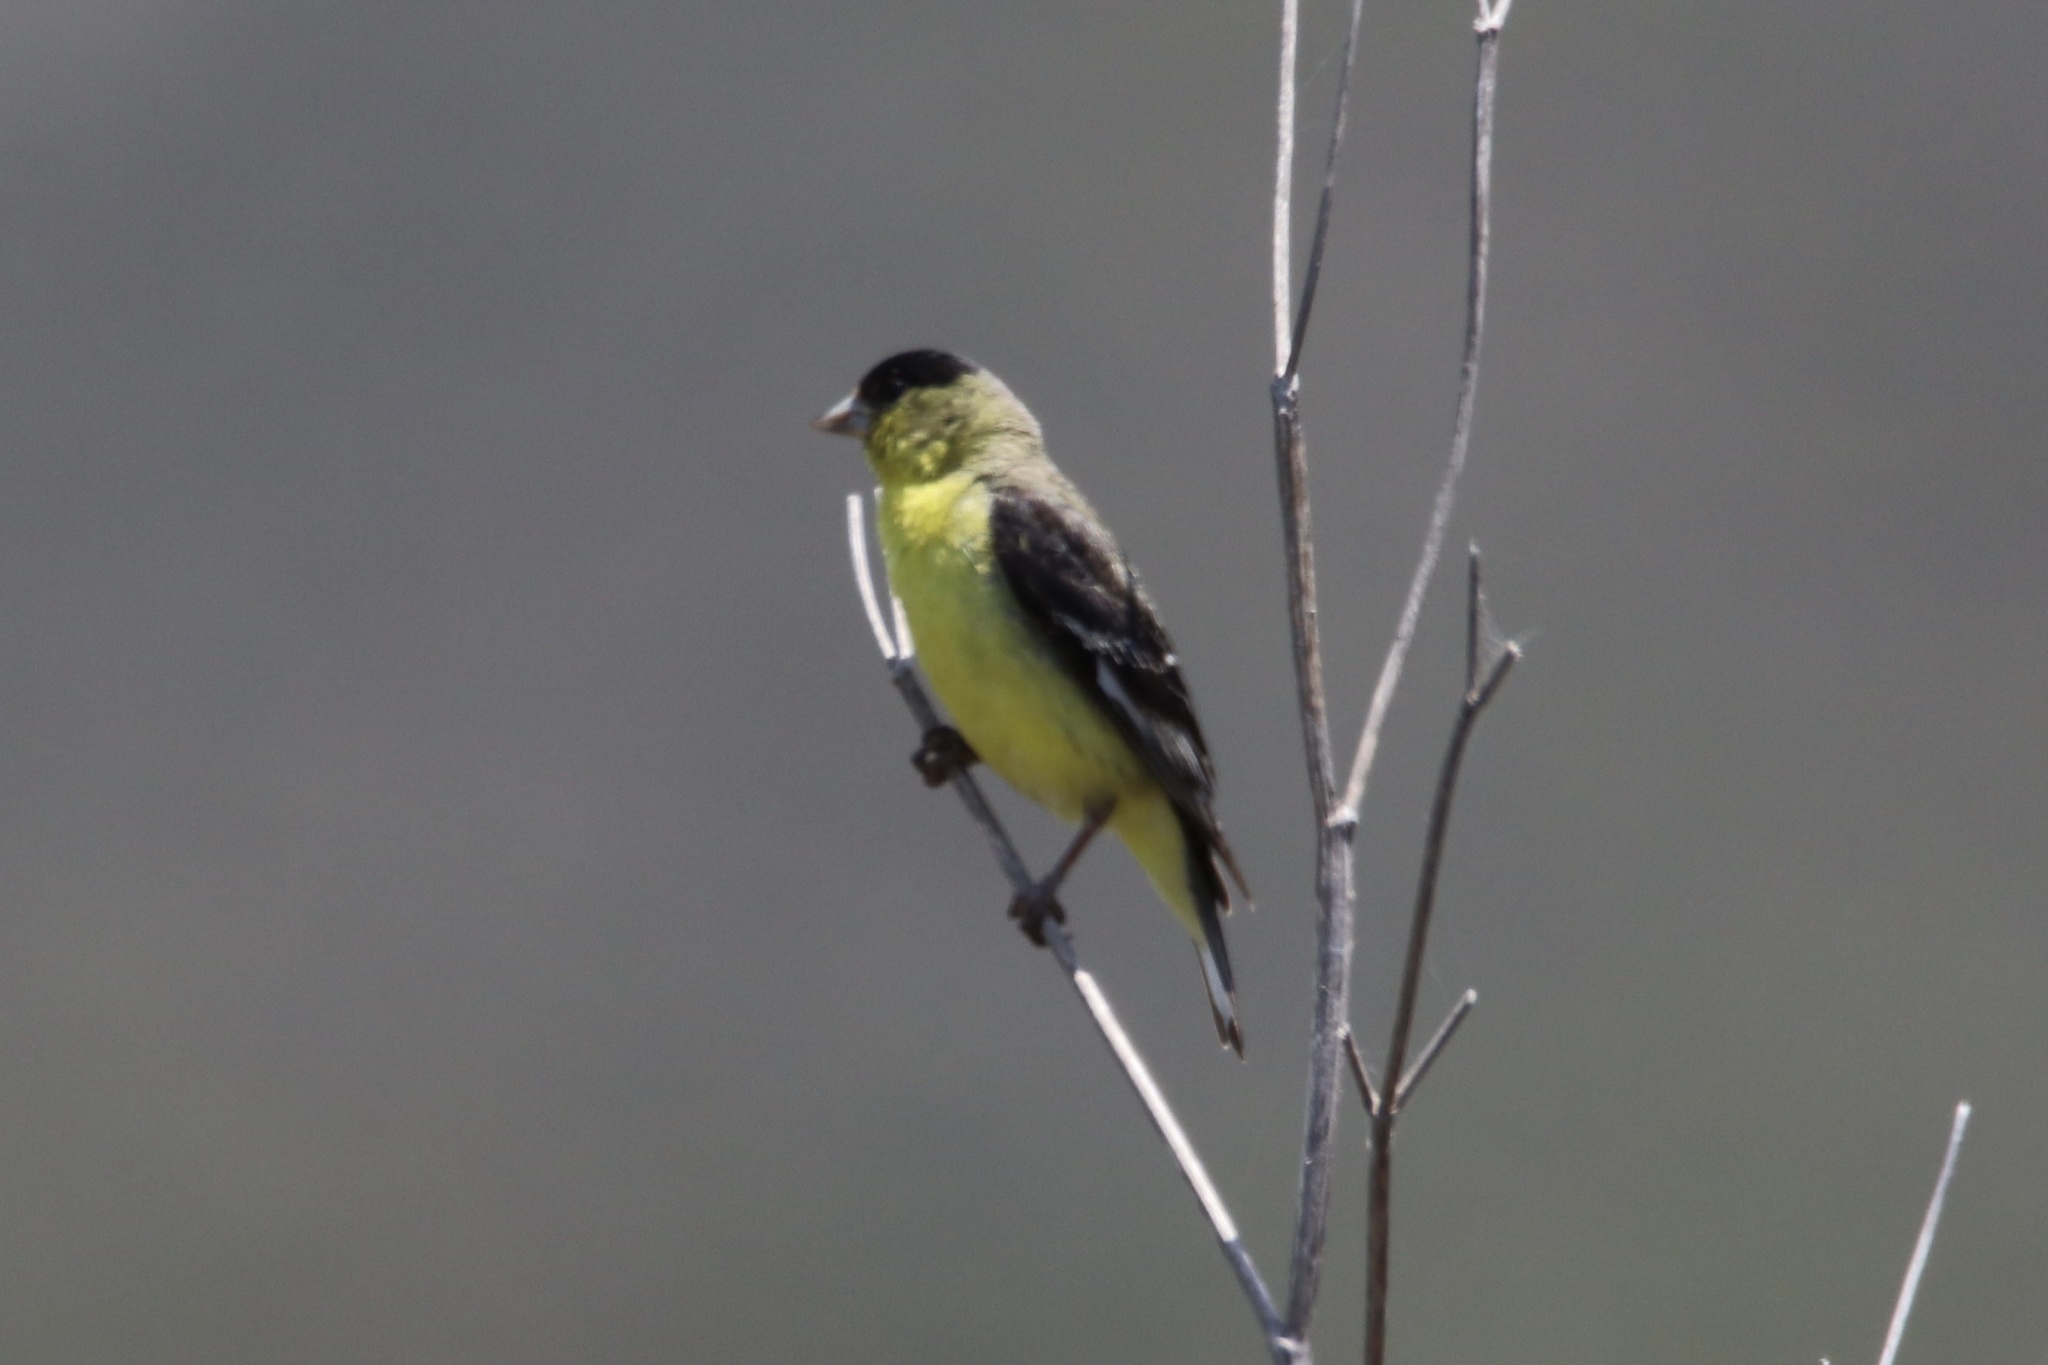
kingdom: Animalia
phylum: Chordata
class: Aves
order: Passeriformes
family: Fringillidae
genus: Spinus
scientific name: Spinus psaltria
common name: Lesser goldfinch
